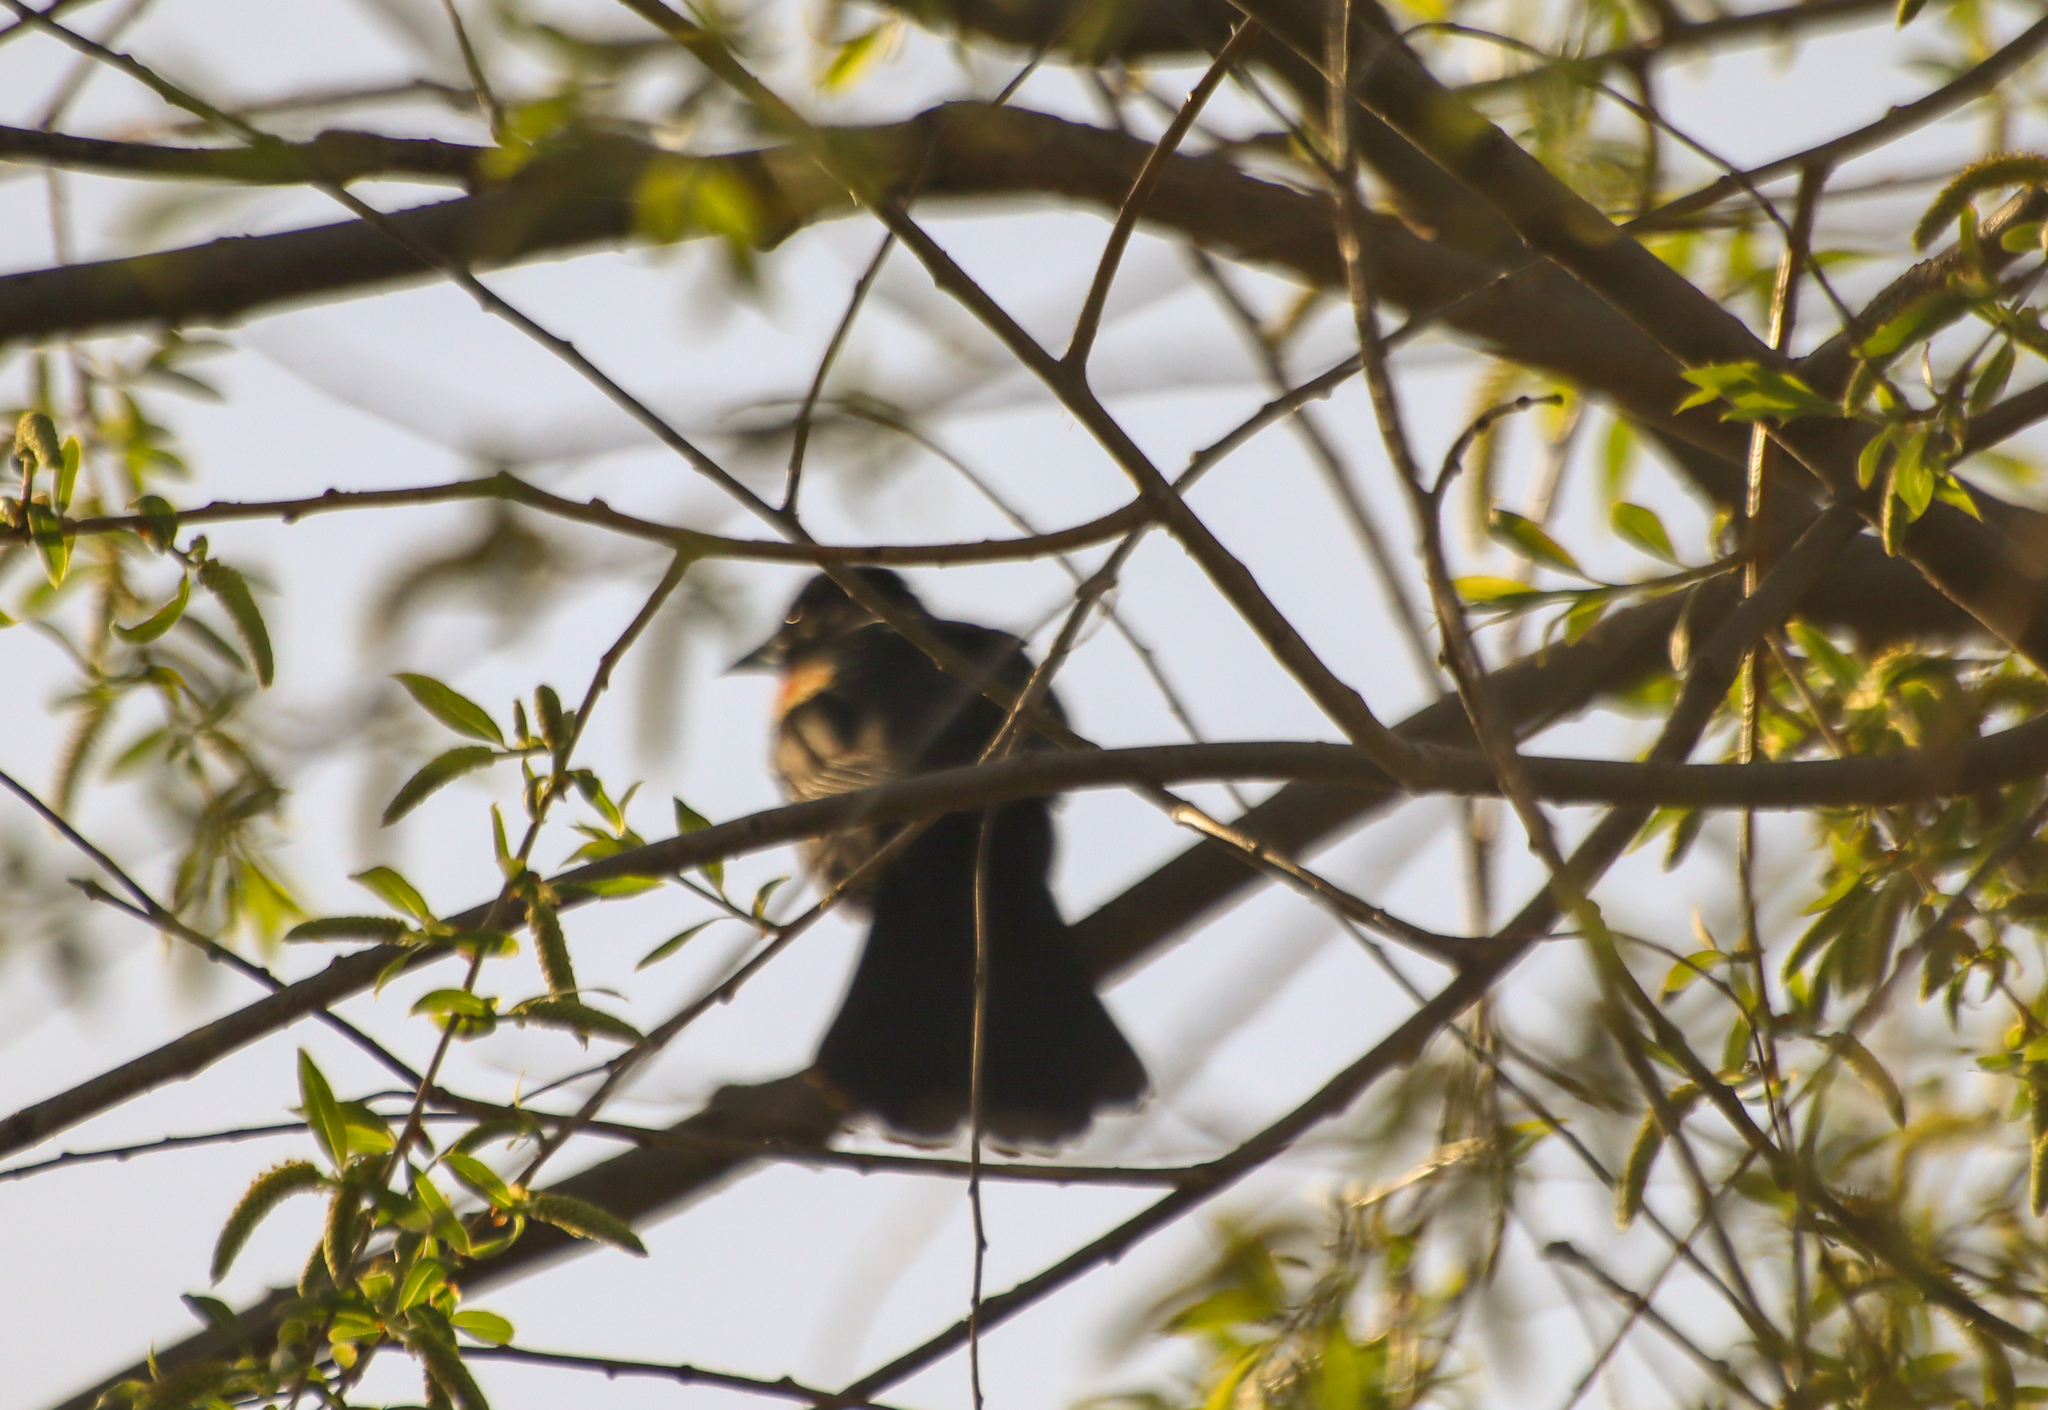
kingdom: Animalia
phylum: Chordata
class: Aves
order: Passeriformes
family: Icteridae
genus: Agelaius
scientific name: Agelaius phoeniceus
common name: Red-winged blackbird
